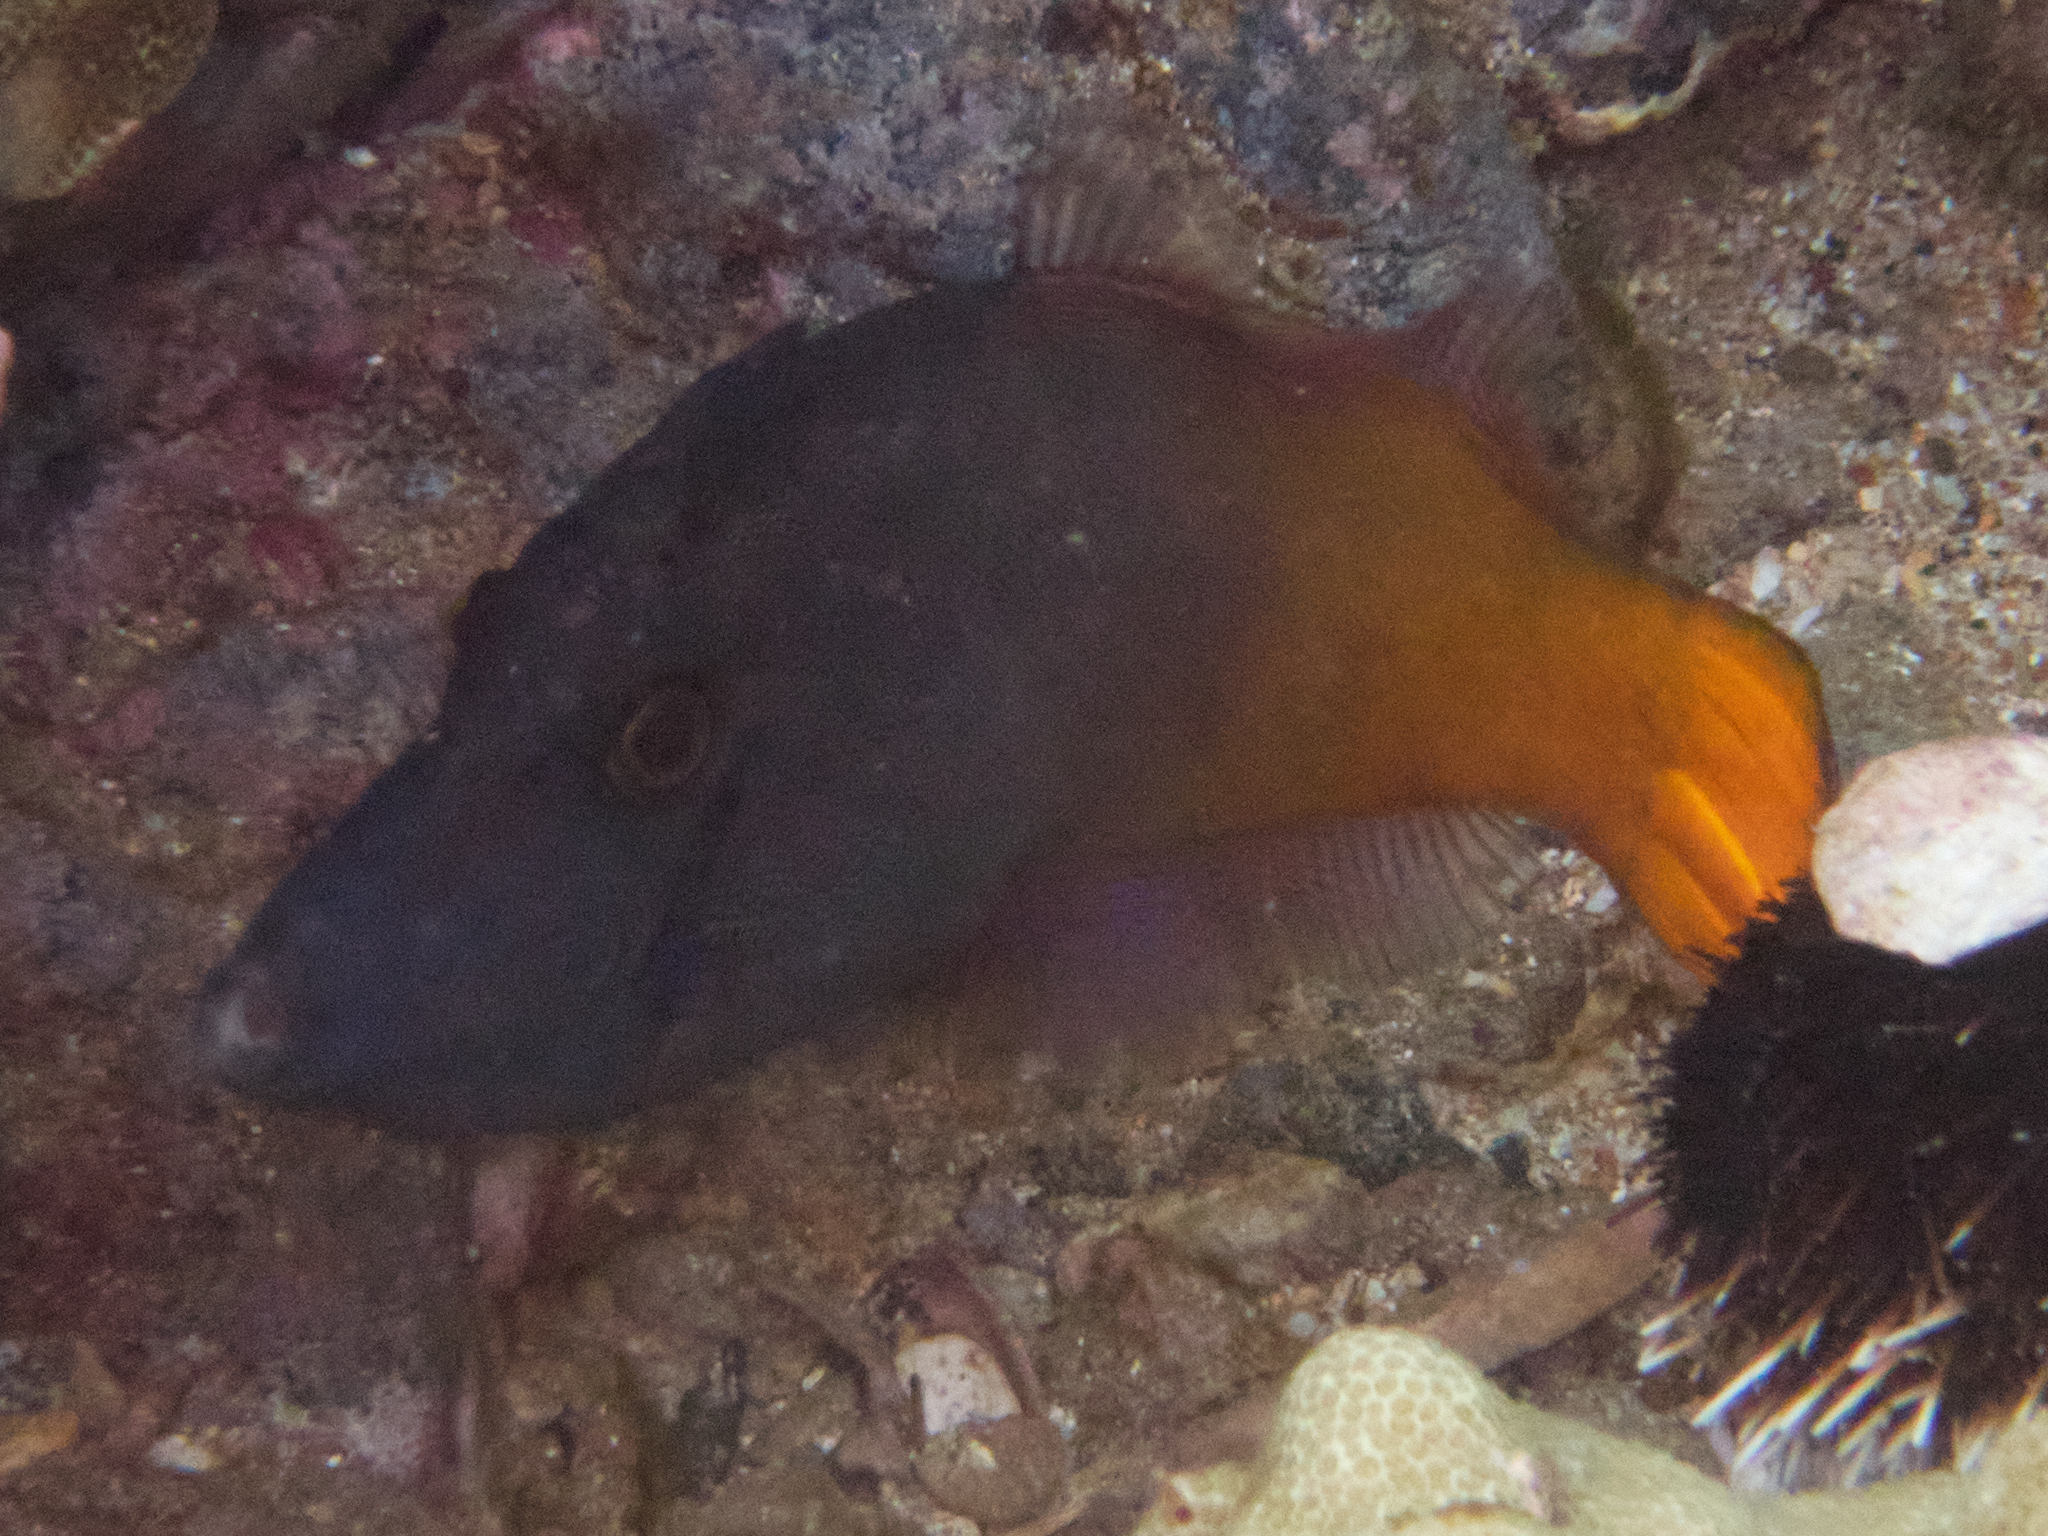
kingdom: Animalia
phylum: Chordata
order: Tetraodontiformes
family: Monacanthidae
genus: Pervagor
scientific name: Pervagor aspricaudus
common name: Orangetail filefish
